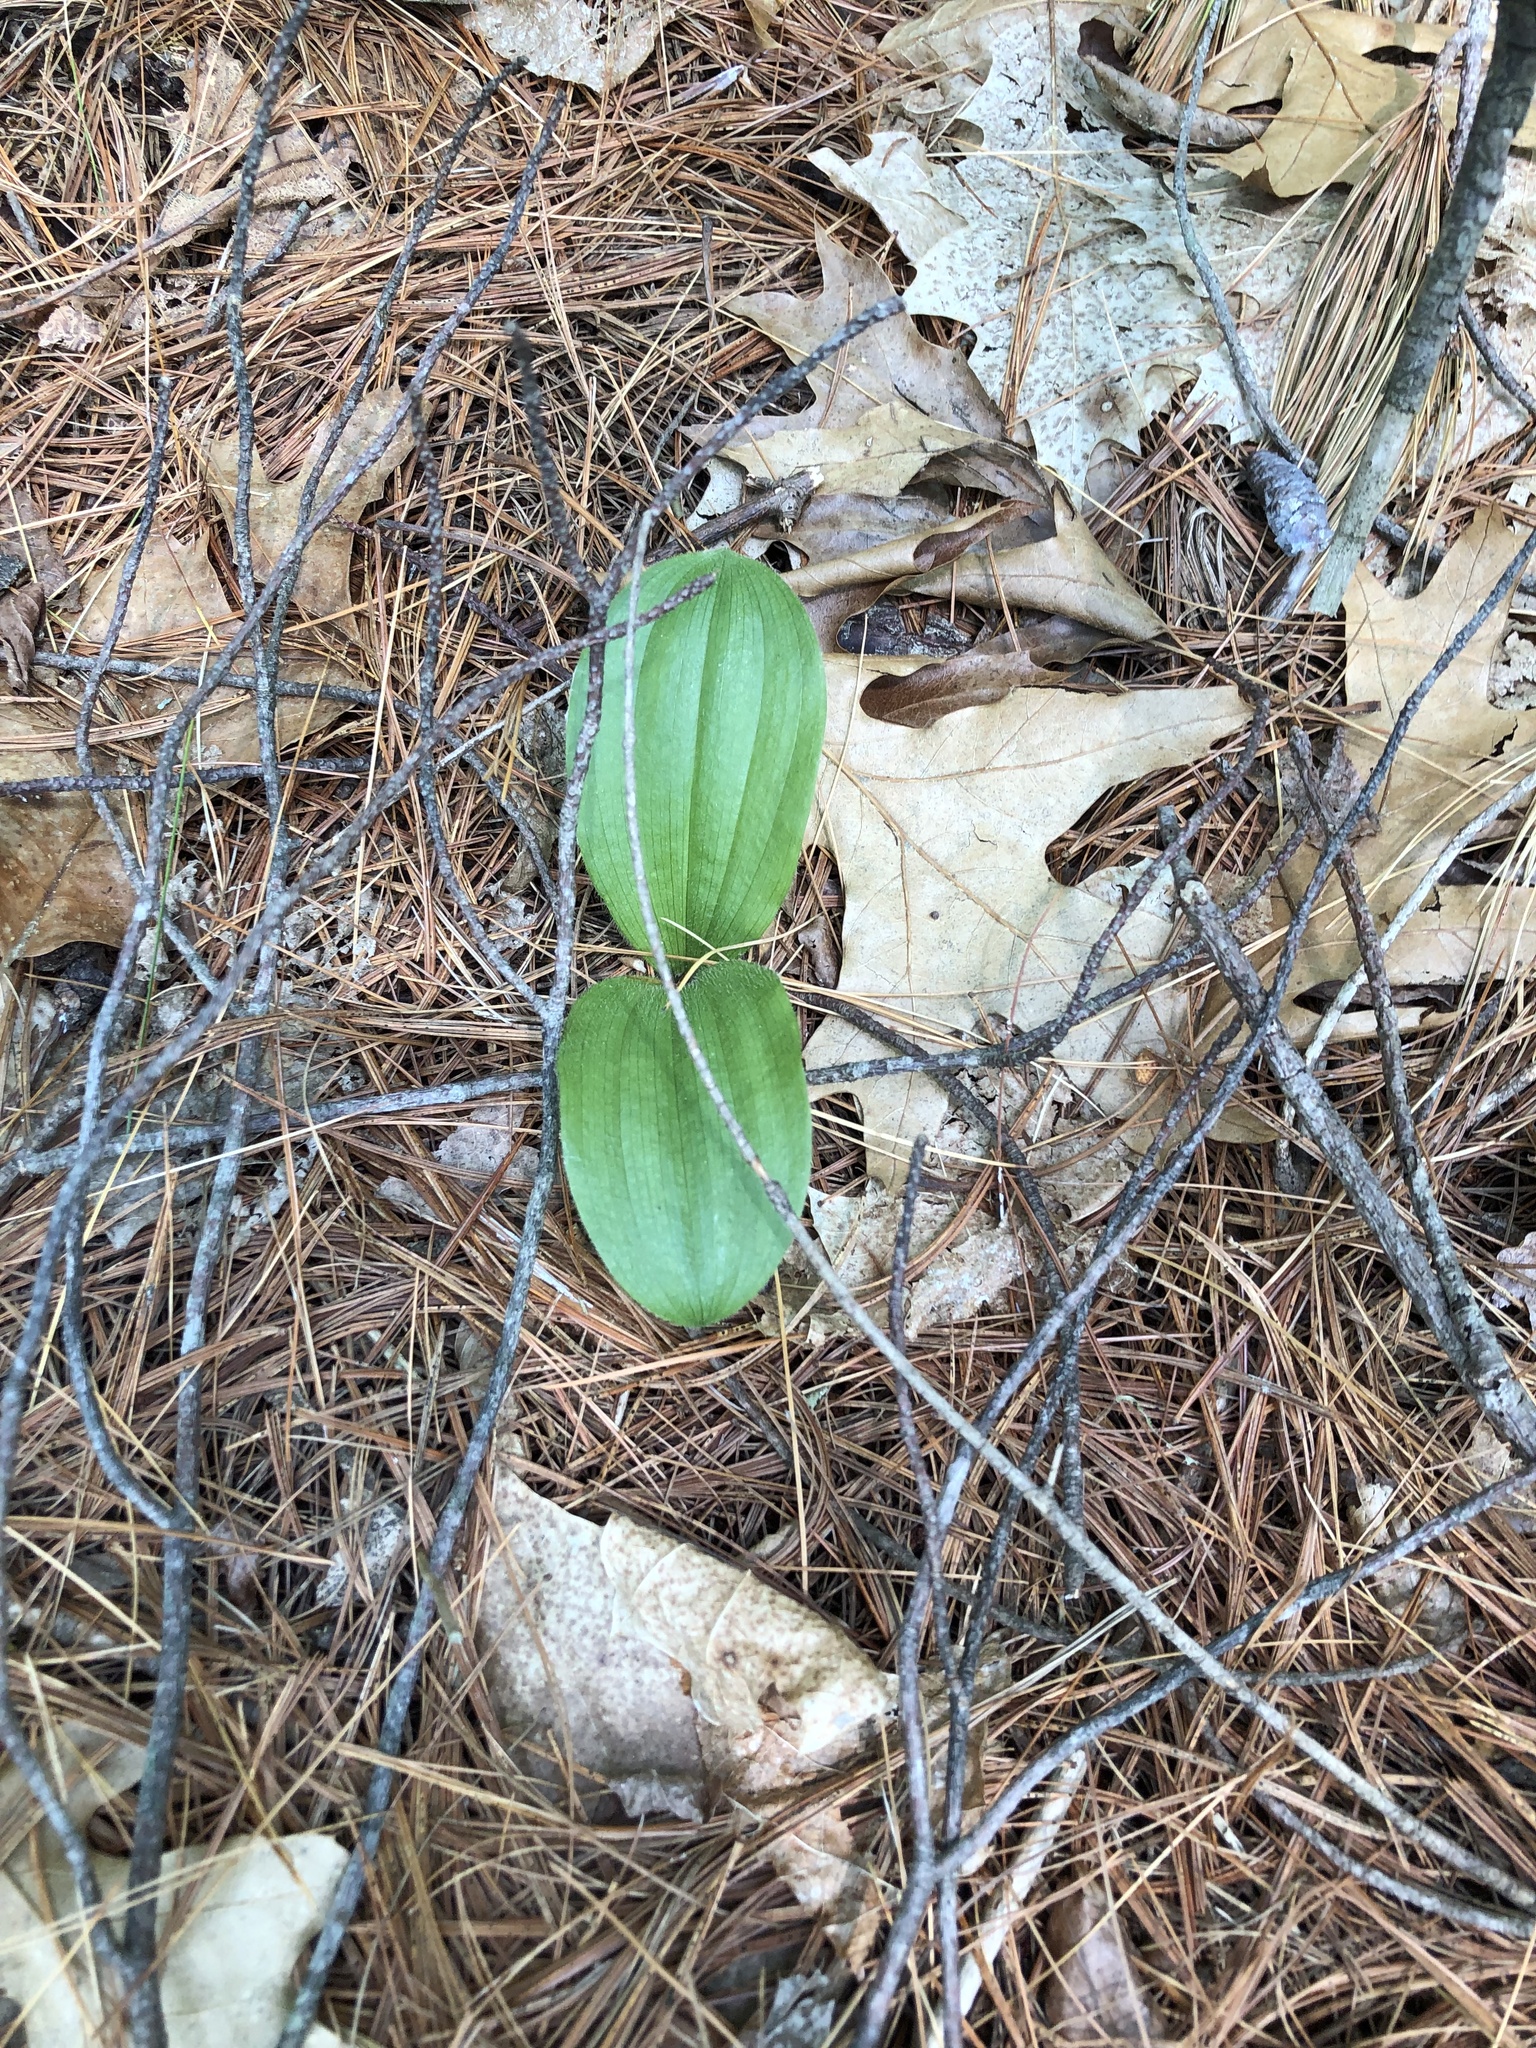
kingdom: Plantae
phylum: Tracheophyta
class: Liliopsida
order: Asparagales
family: Orchidaceae
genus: Cypripedium
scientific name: Cypripedium acaule
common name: Pink lady's-slipper
